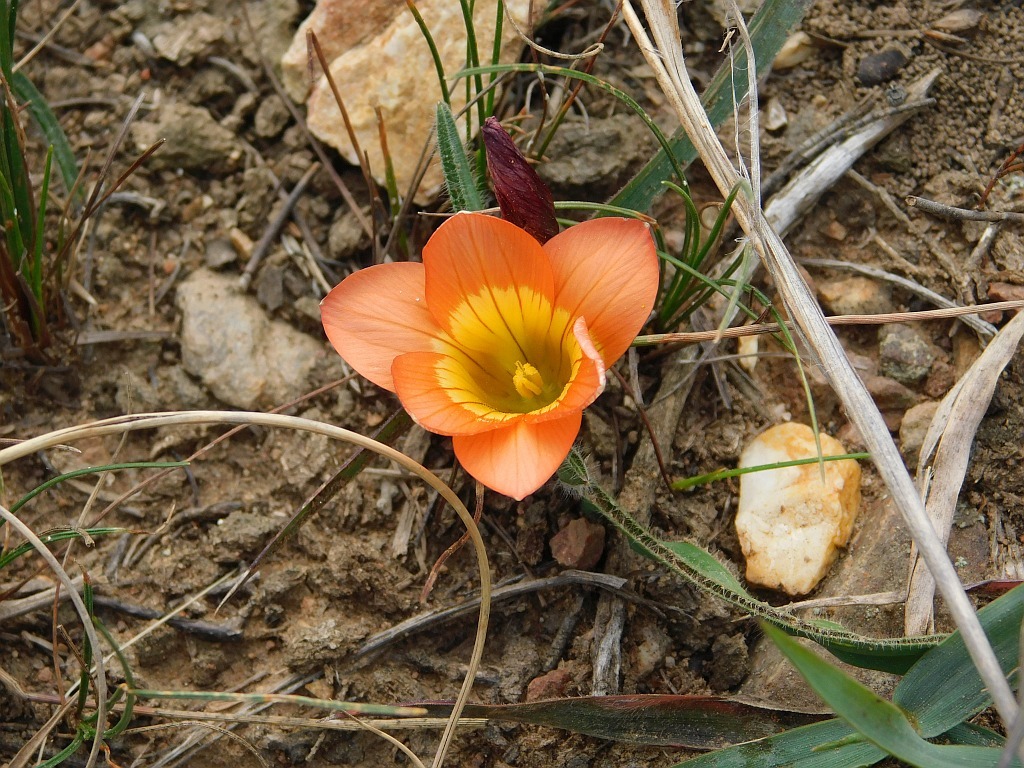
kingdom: Plantae
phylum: Tracheophyta
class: Liliopsida
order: Asparagales
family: Iridaceae
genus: Romulea
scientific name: Romulea pilosa
